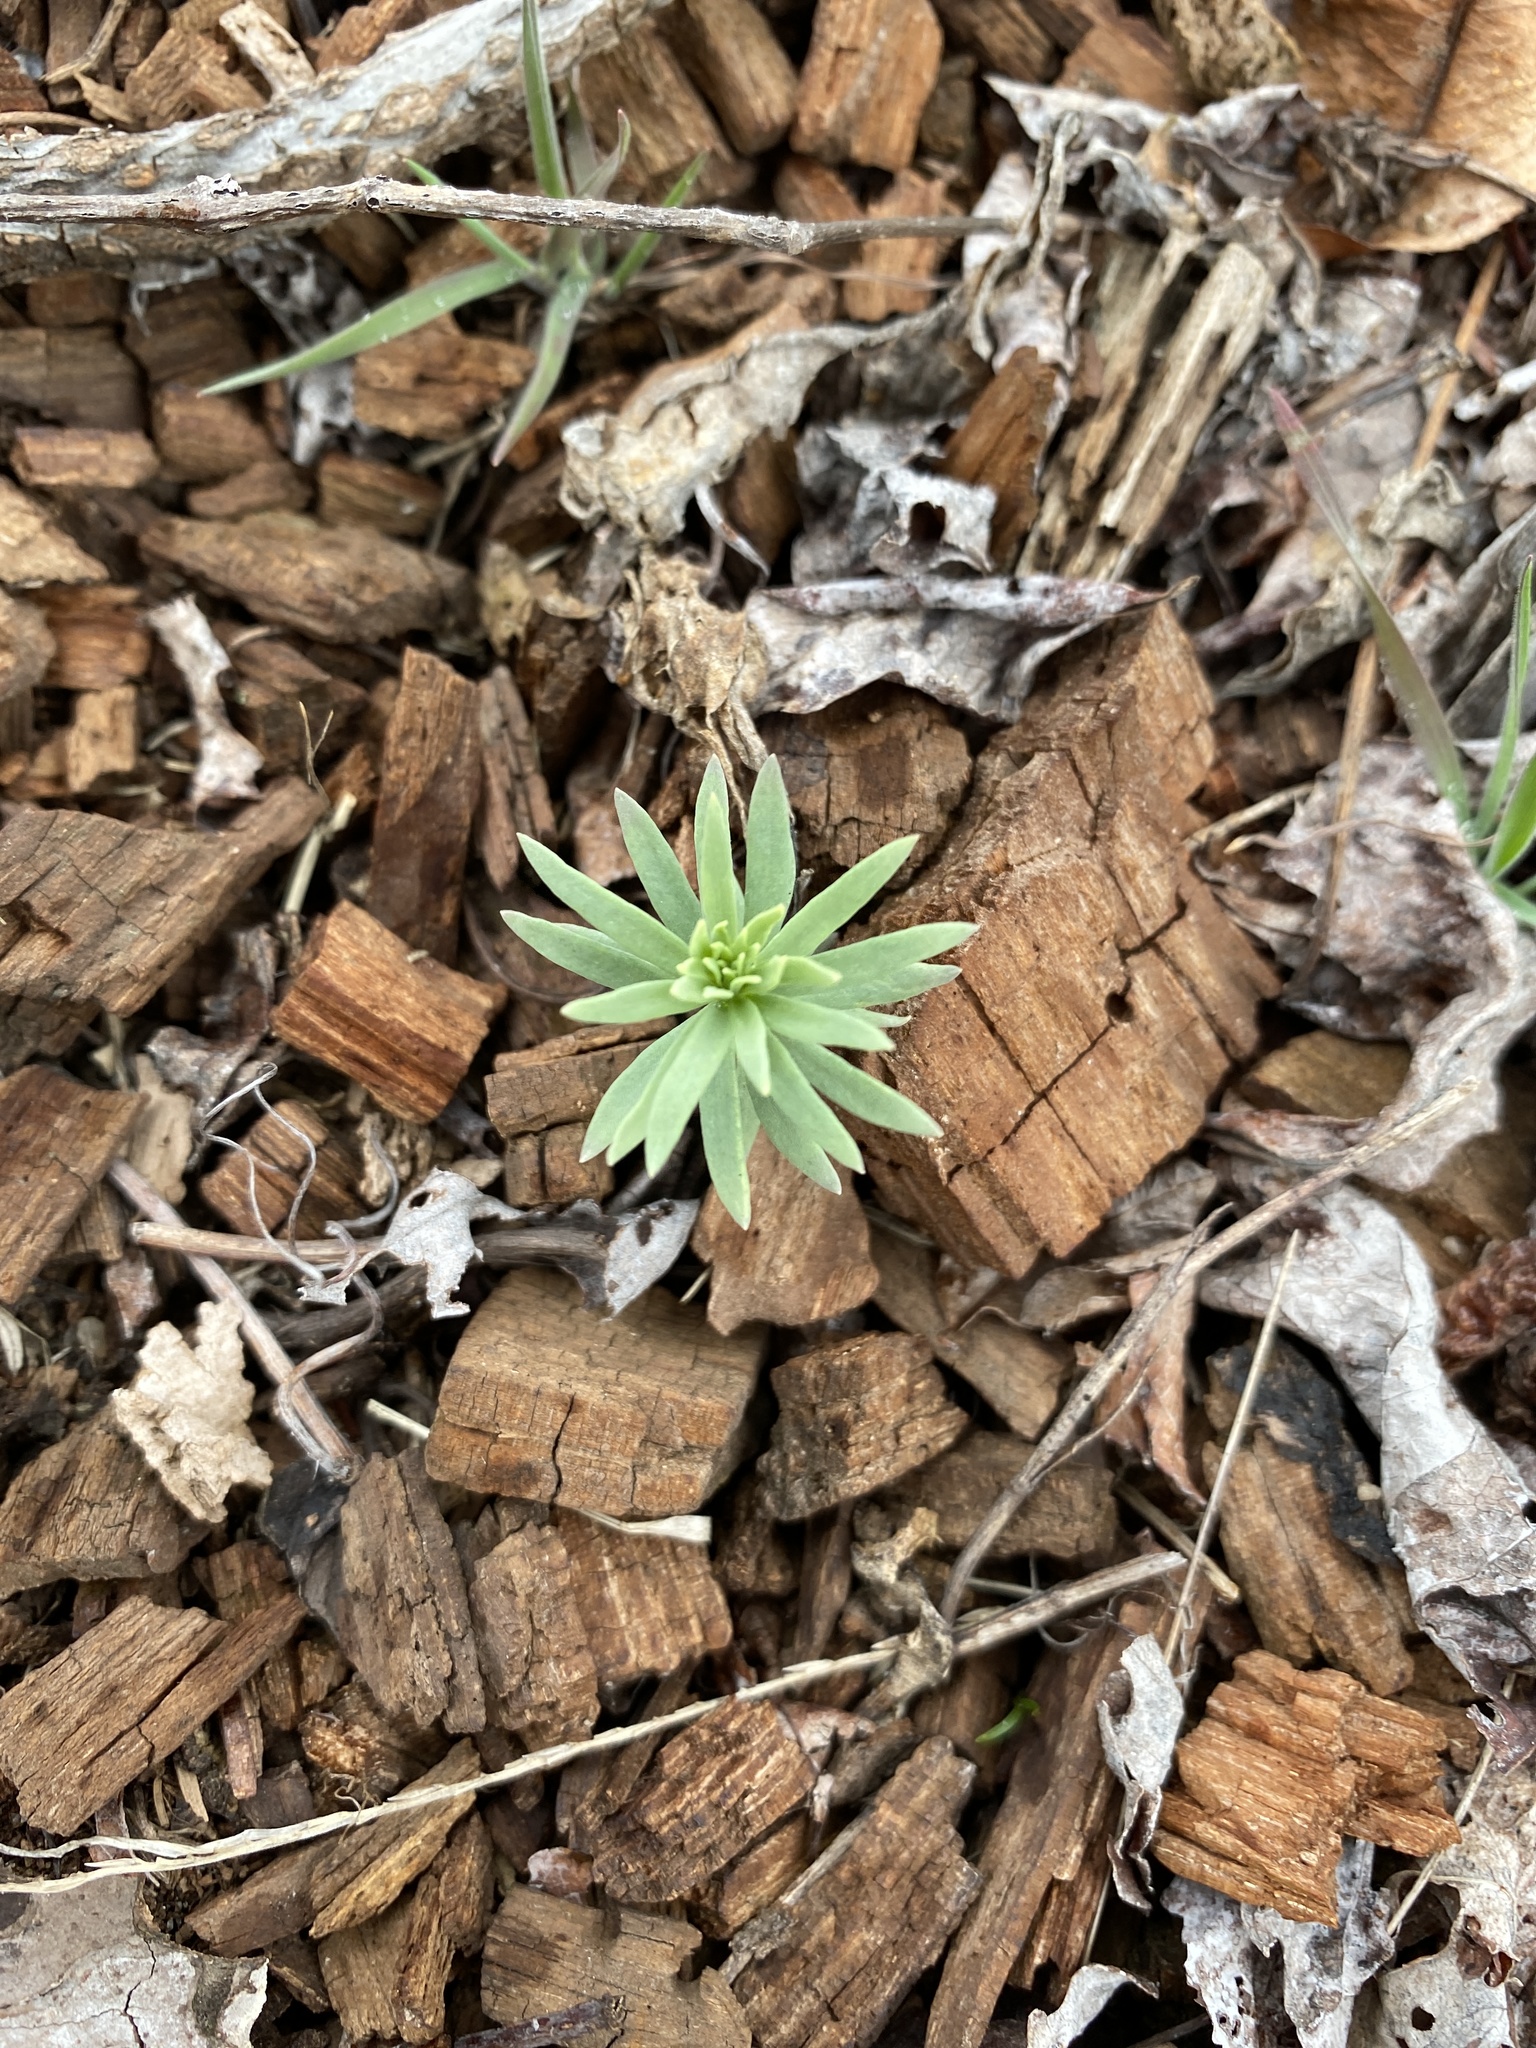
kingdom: Plantae
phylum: Tracheophyta
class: Magnoliopsida
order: Lamiales
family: Plantaginaceae
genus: Linaria
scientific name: Linaria vulgaris
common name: Butter and eggs
